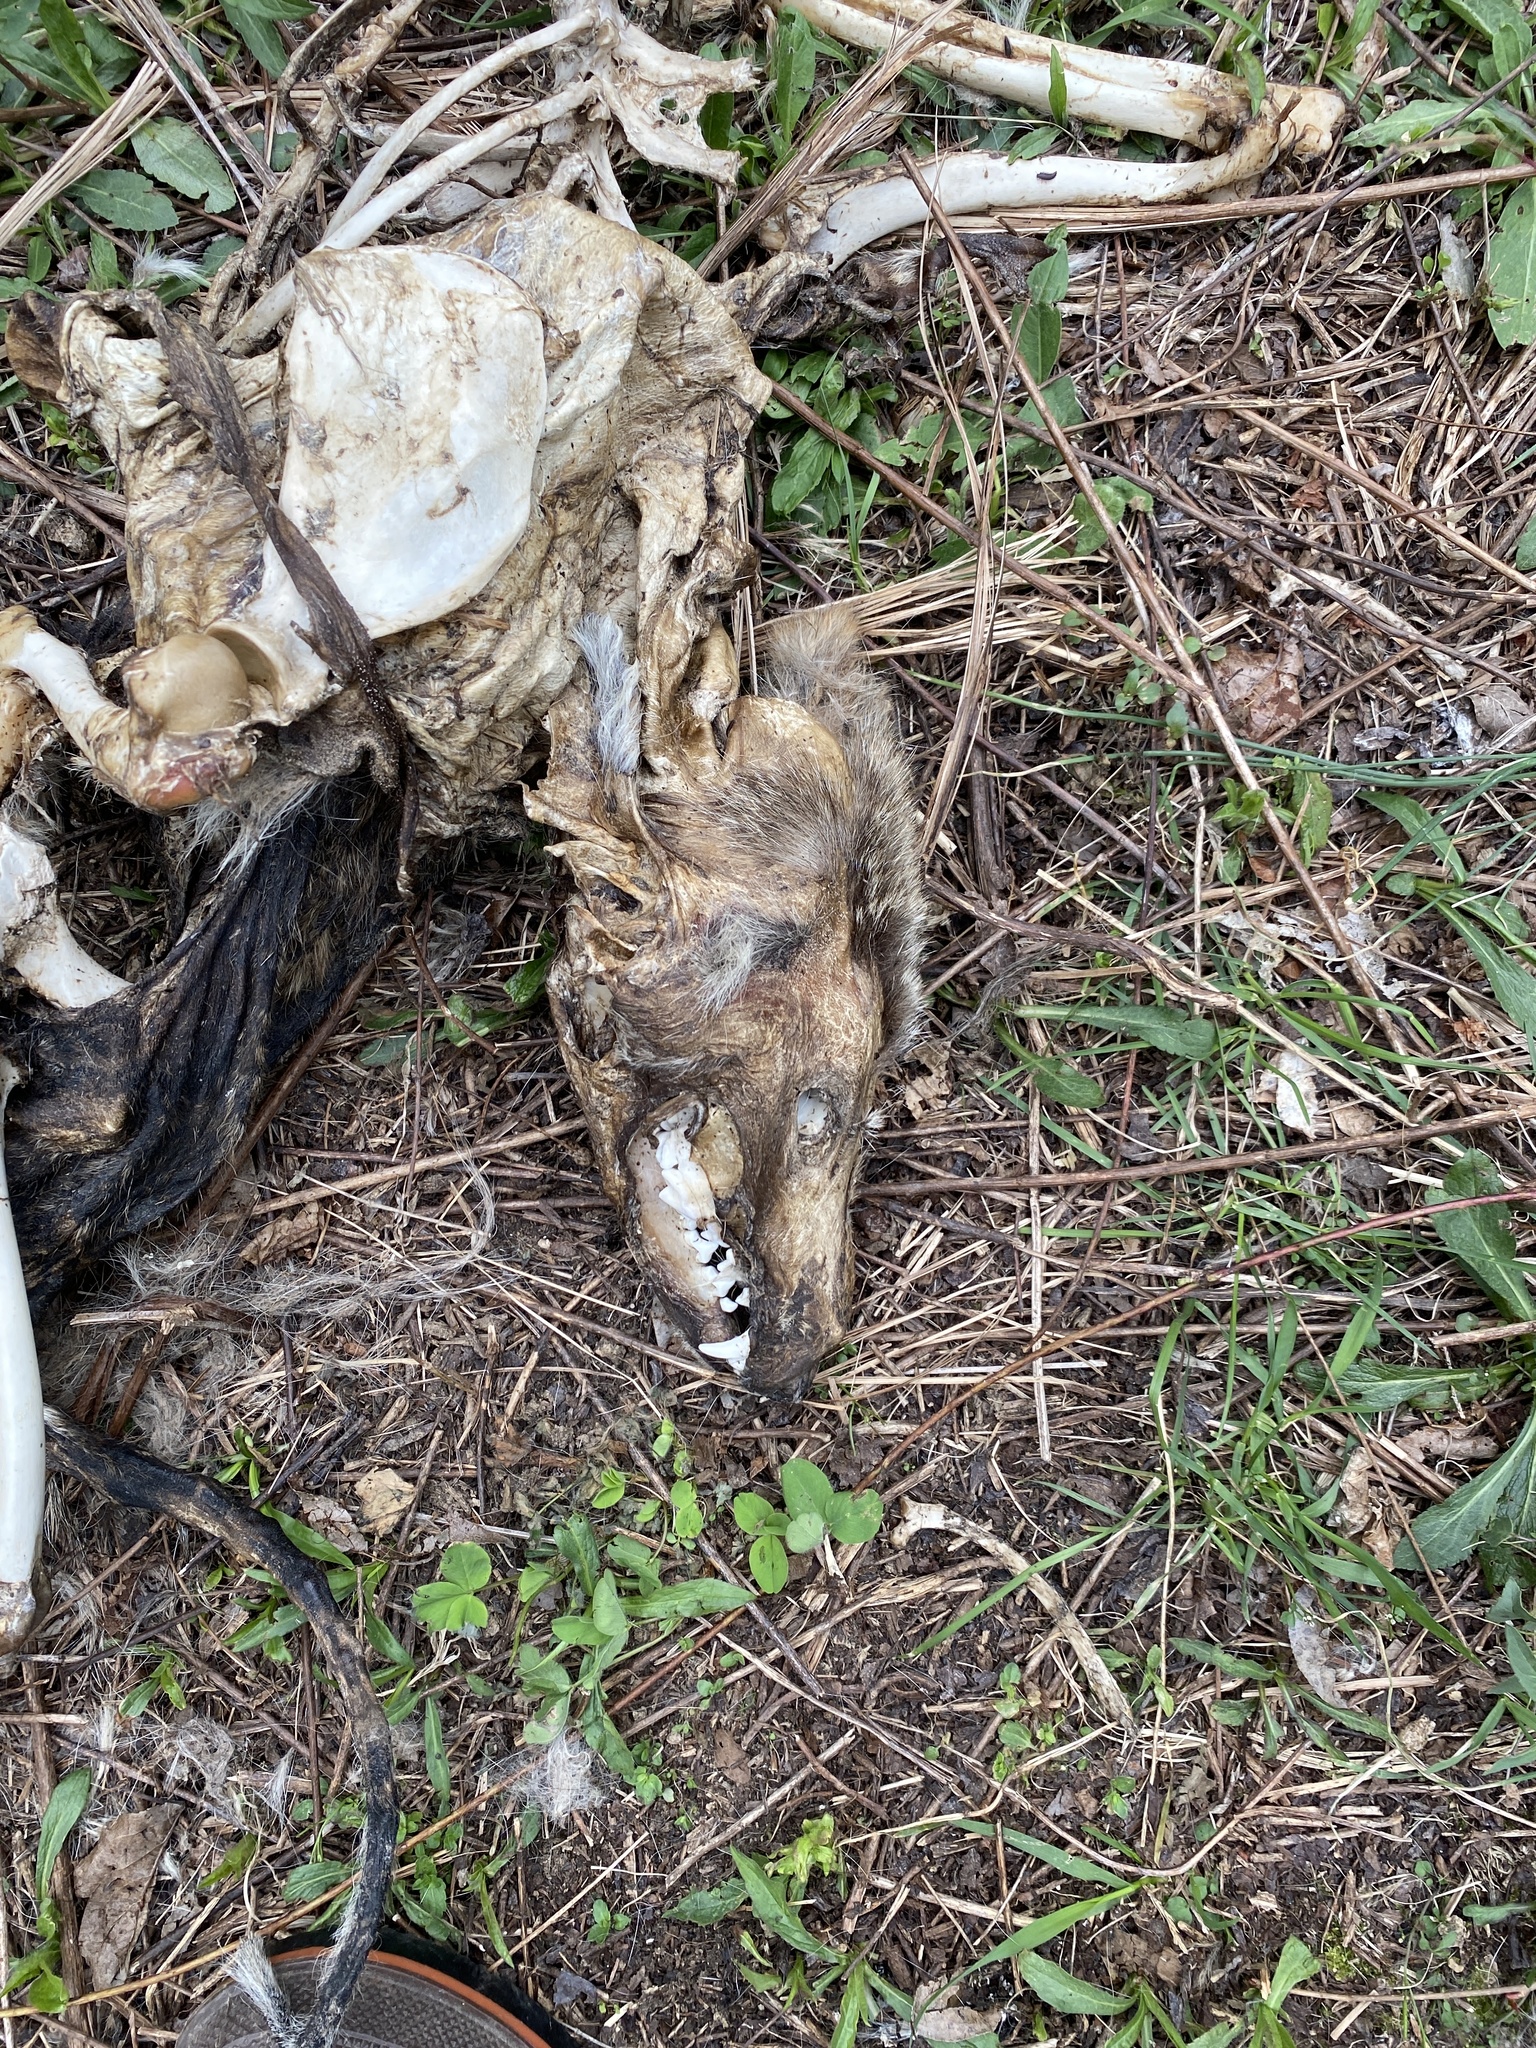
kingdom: Animalia
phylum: Chordata
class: Mammalia
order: Carnivora
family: Canidae
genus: Canis
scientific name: Canis latrans
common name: Coyote
